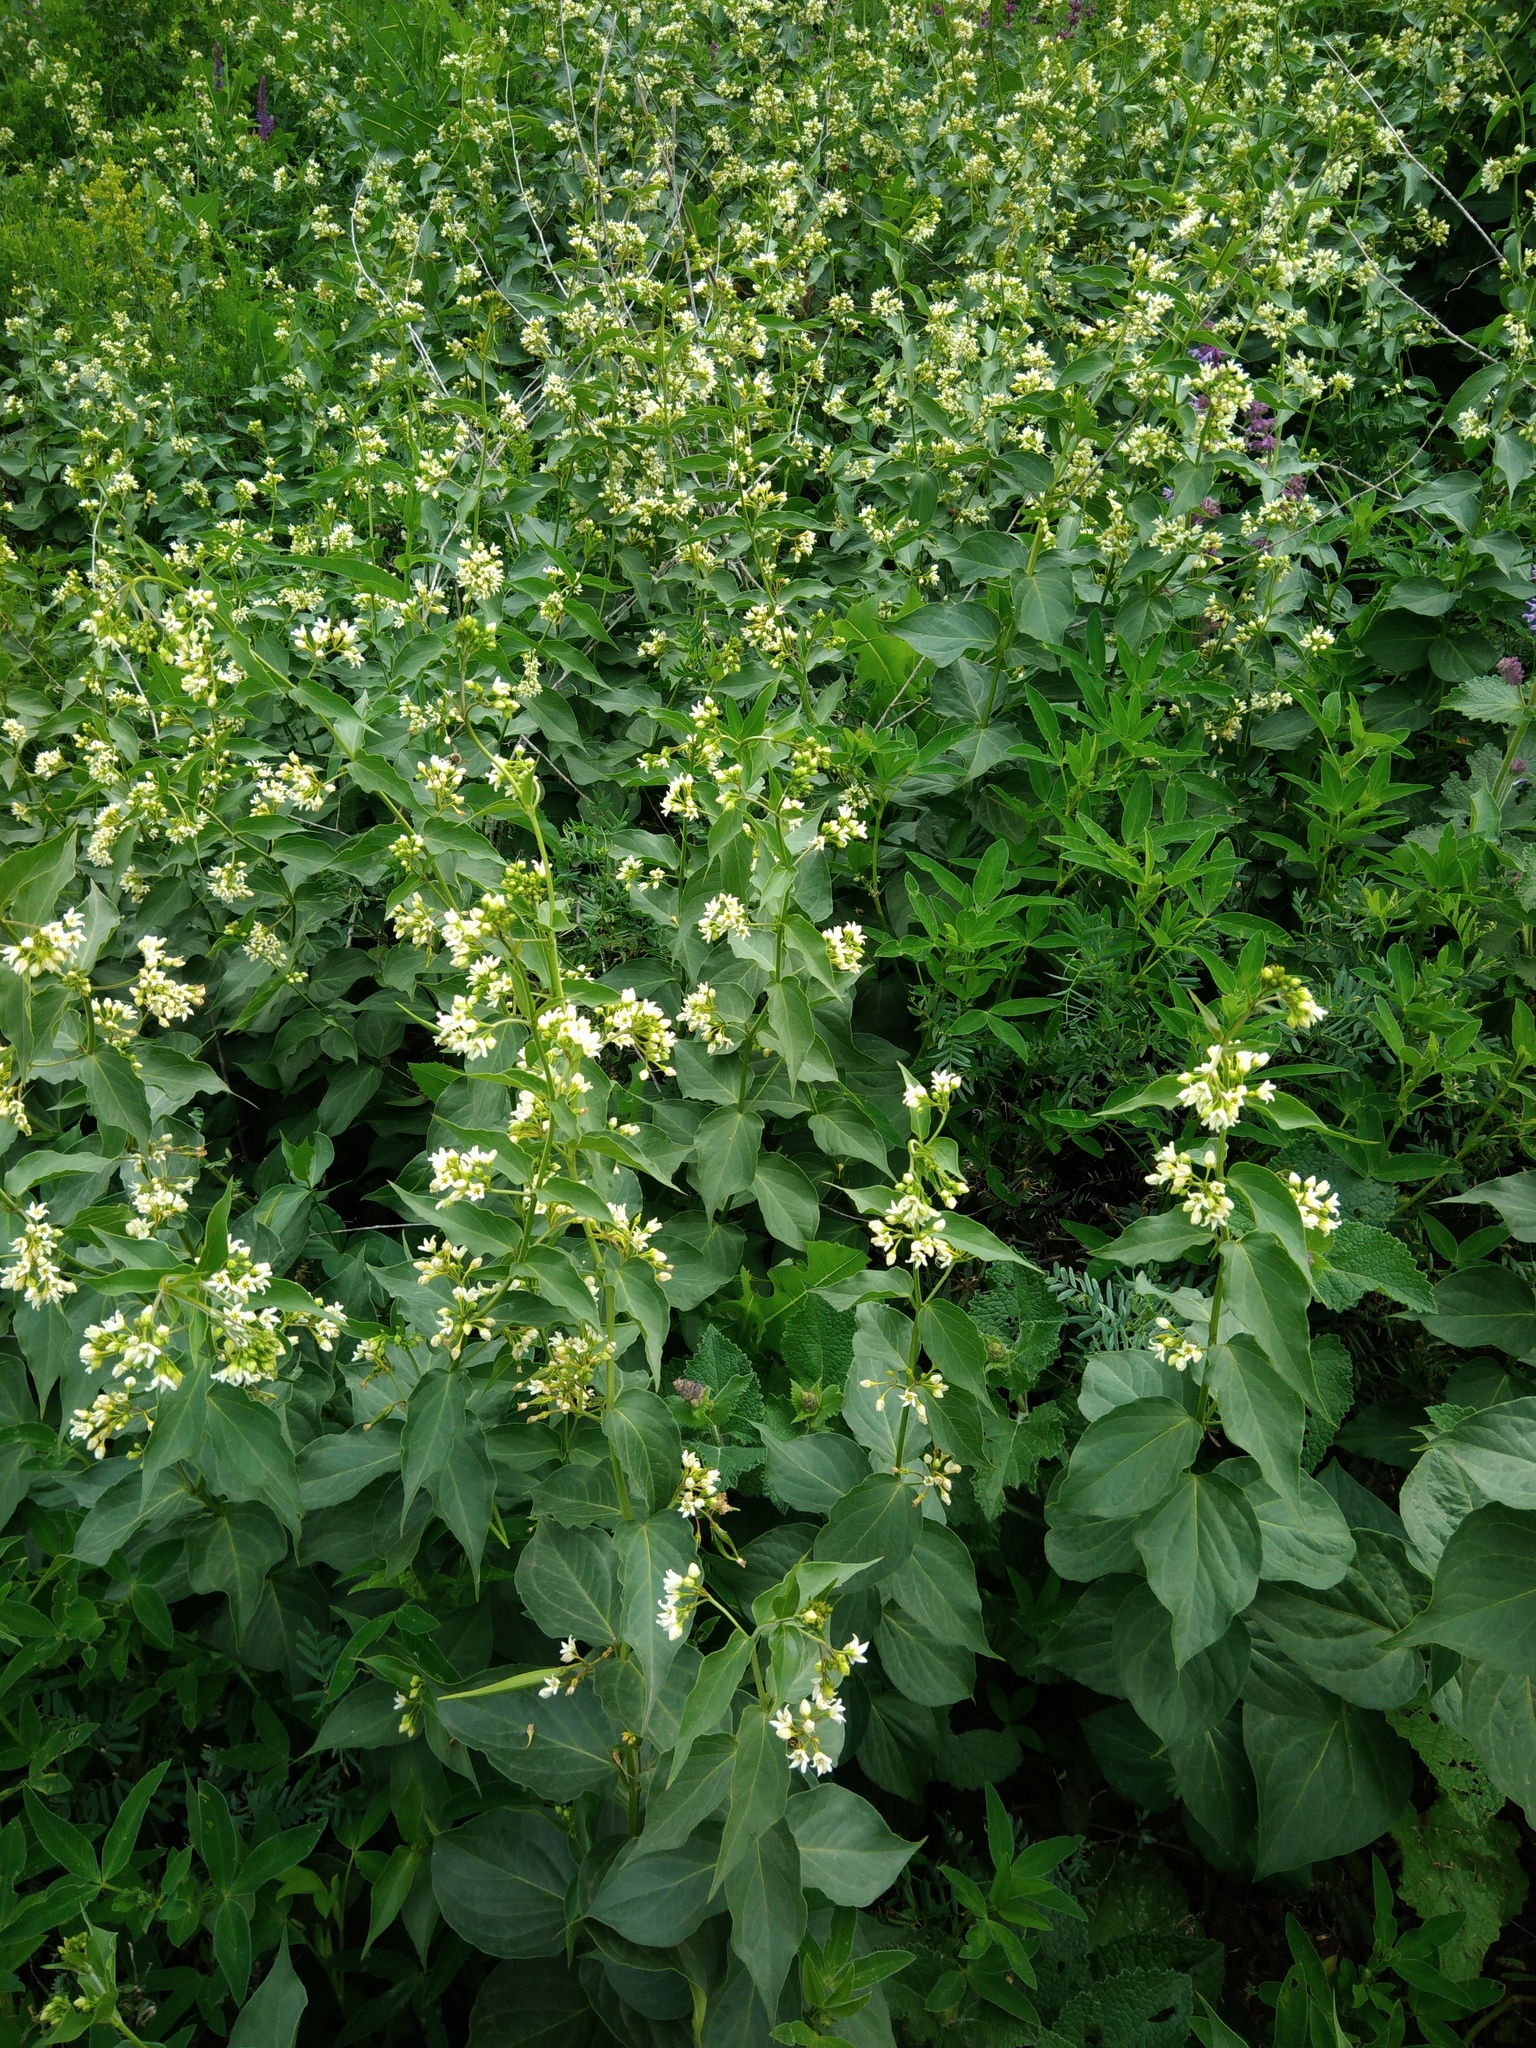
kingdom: Plantae
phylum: Tracheophyta
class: Magnoliopsida
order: Gentianales
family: Apocynaceae
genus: Vincetoxicum
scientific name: Vincetoxicum hirundinaria
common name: White swallowwort
